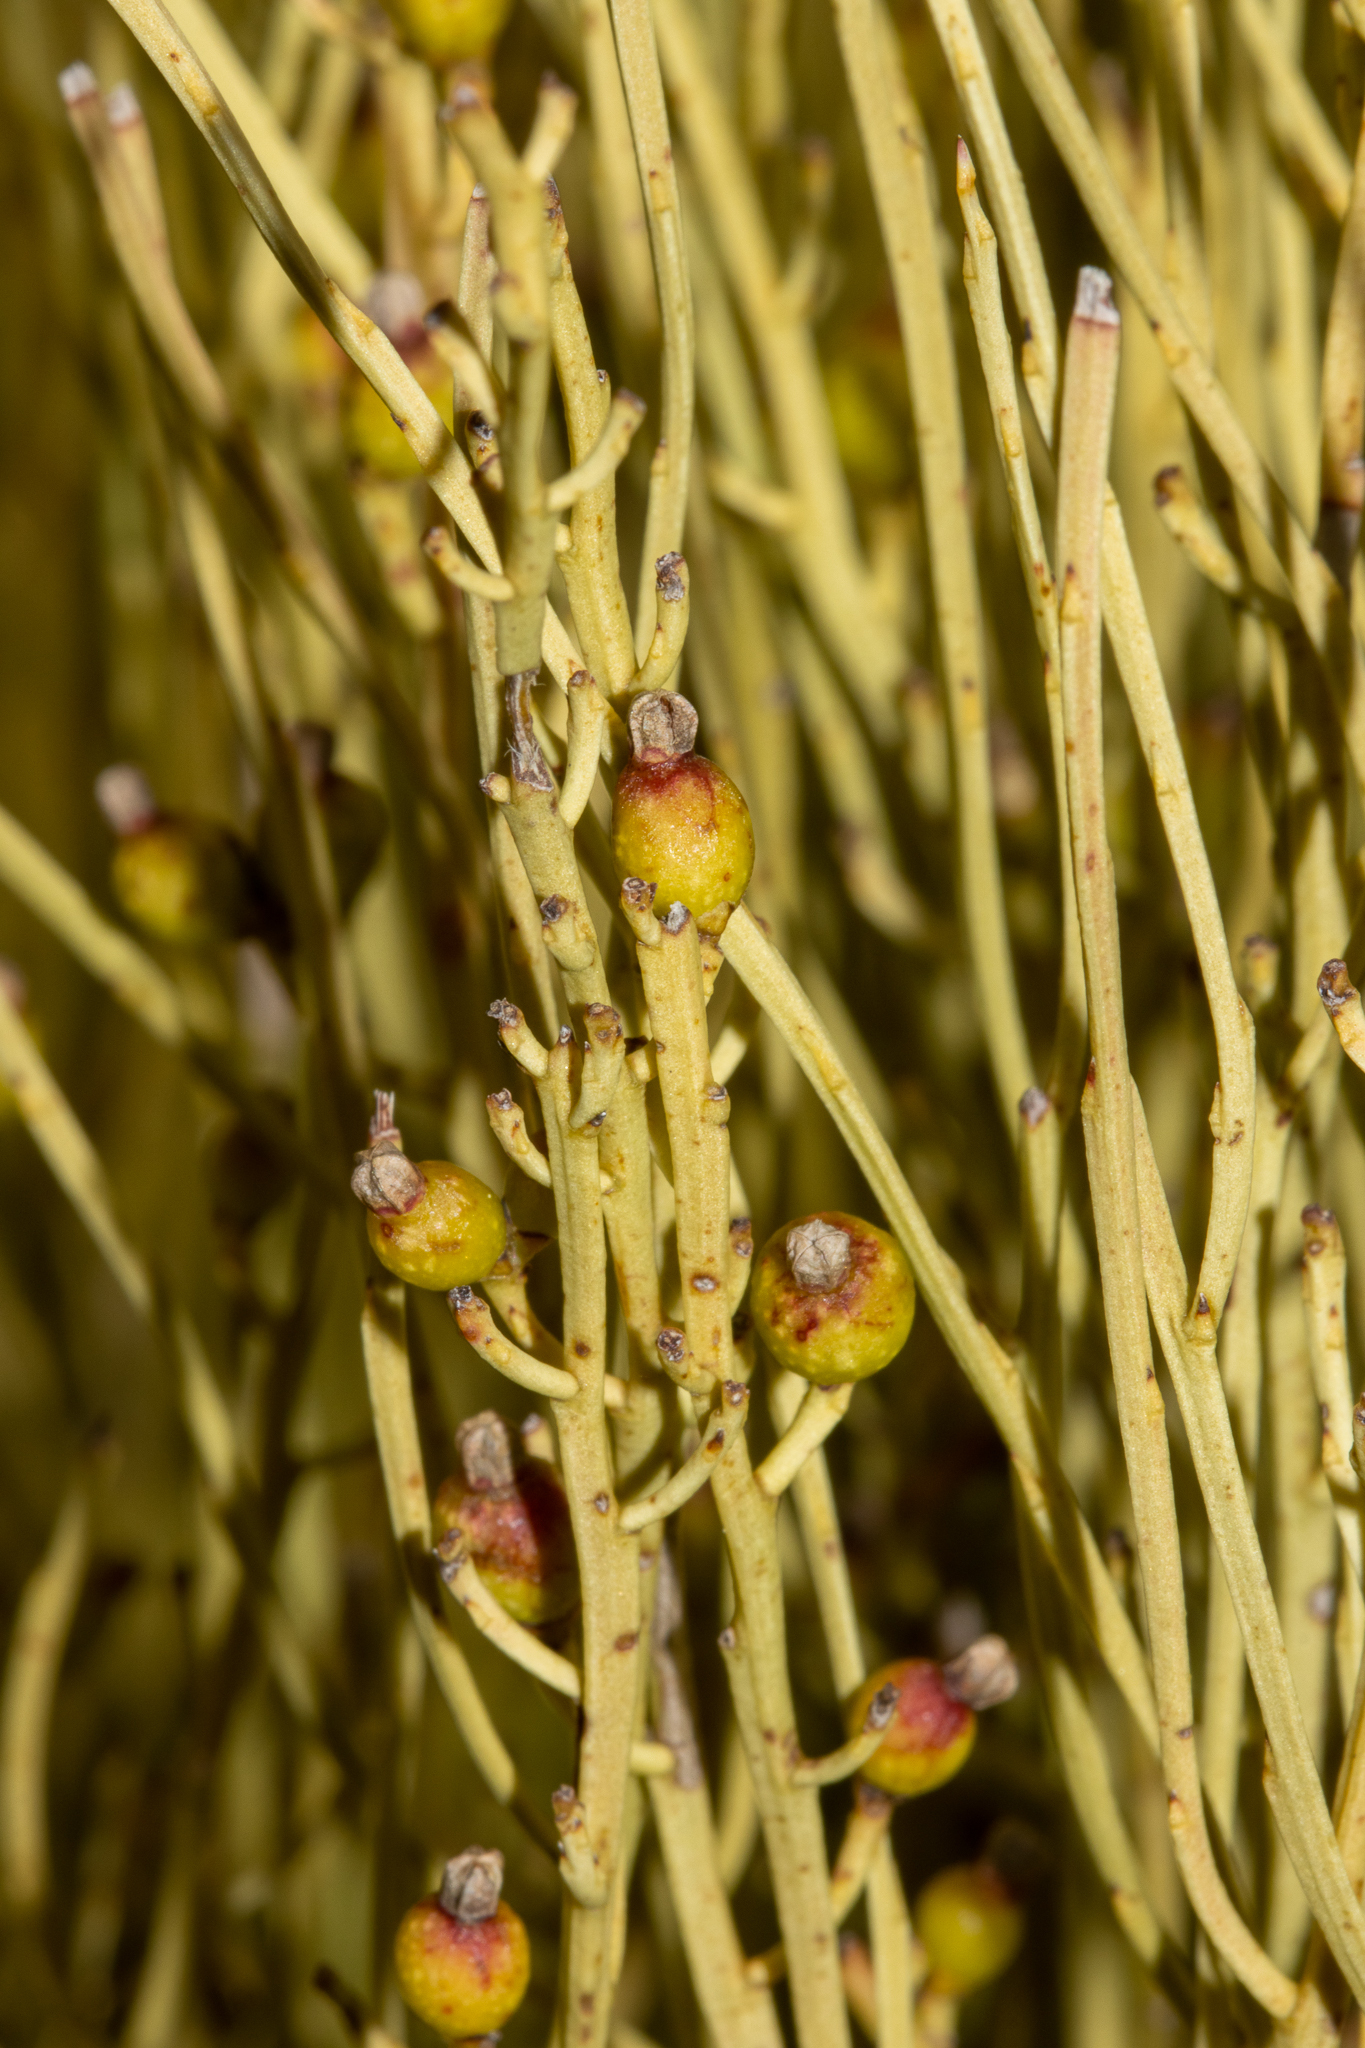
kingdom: Plantae
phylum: Tracheophyta
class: Magnoliopsida
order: Santalales
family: Amphorogynaceae
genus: Choretrum
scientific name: Choretrum glomeratum
